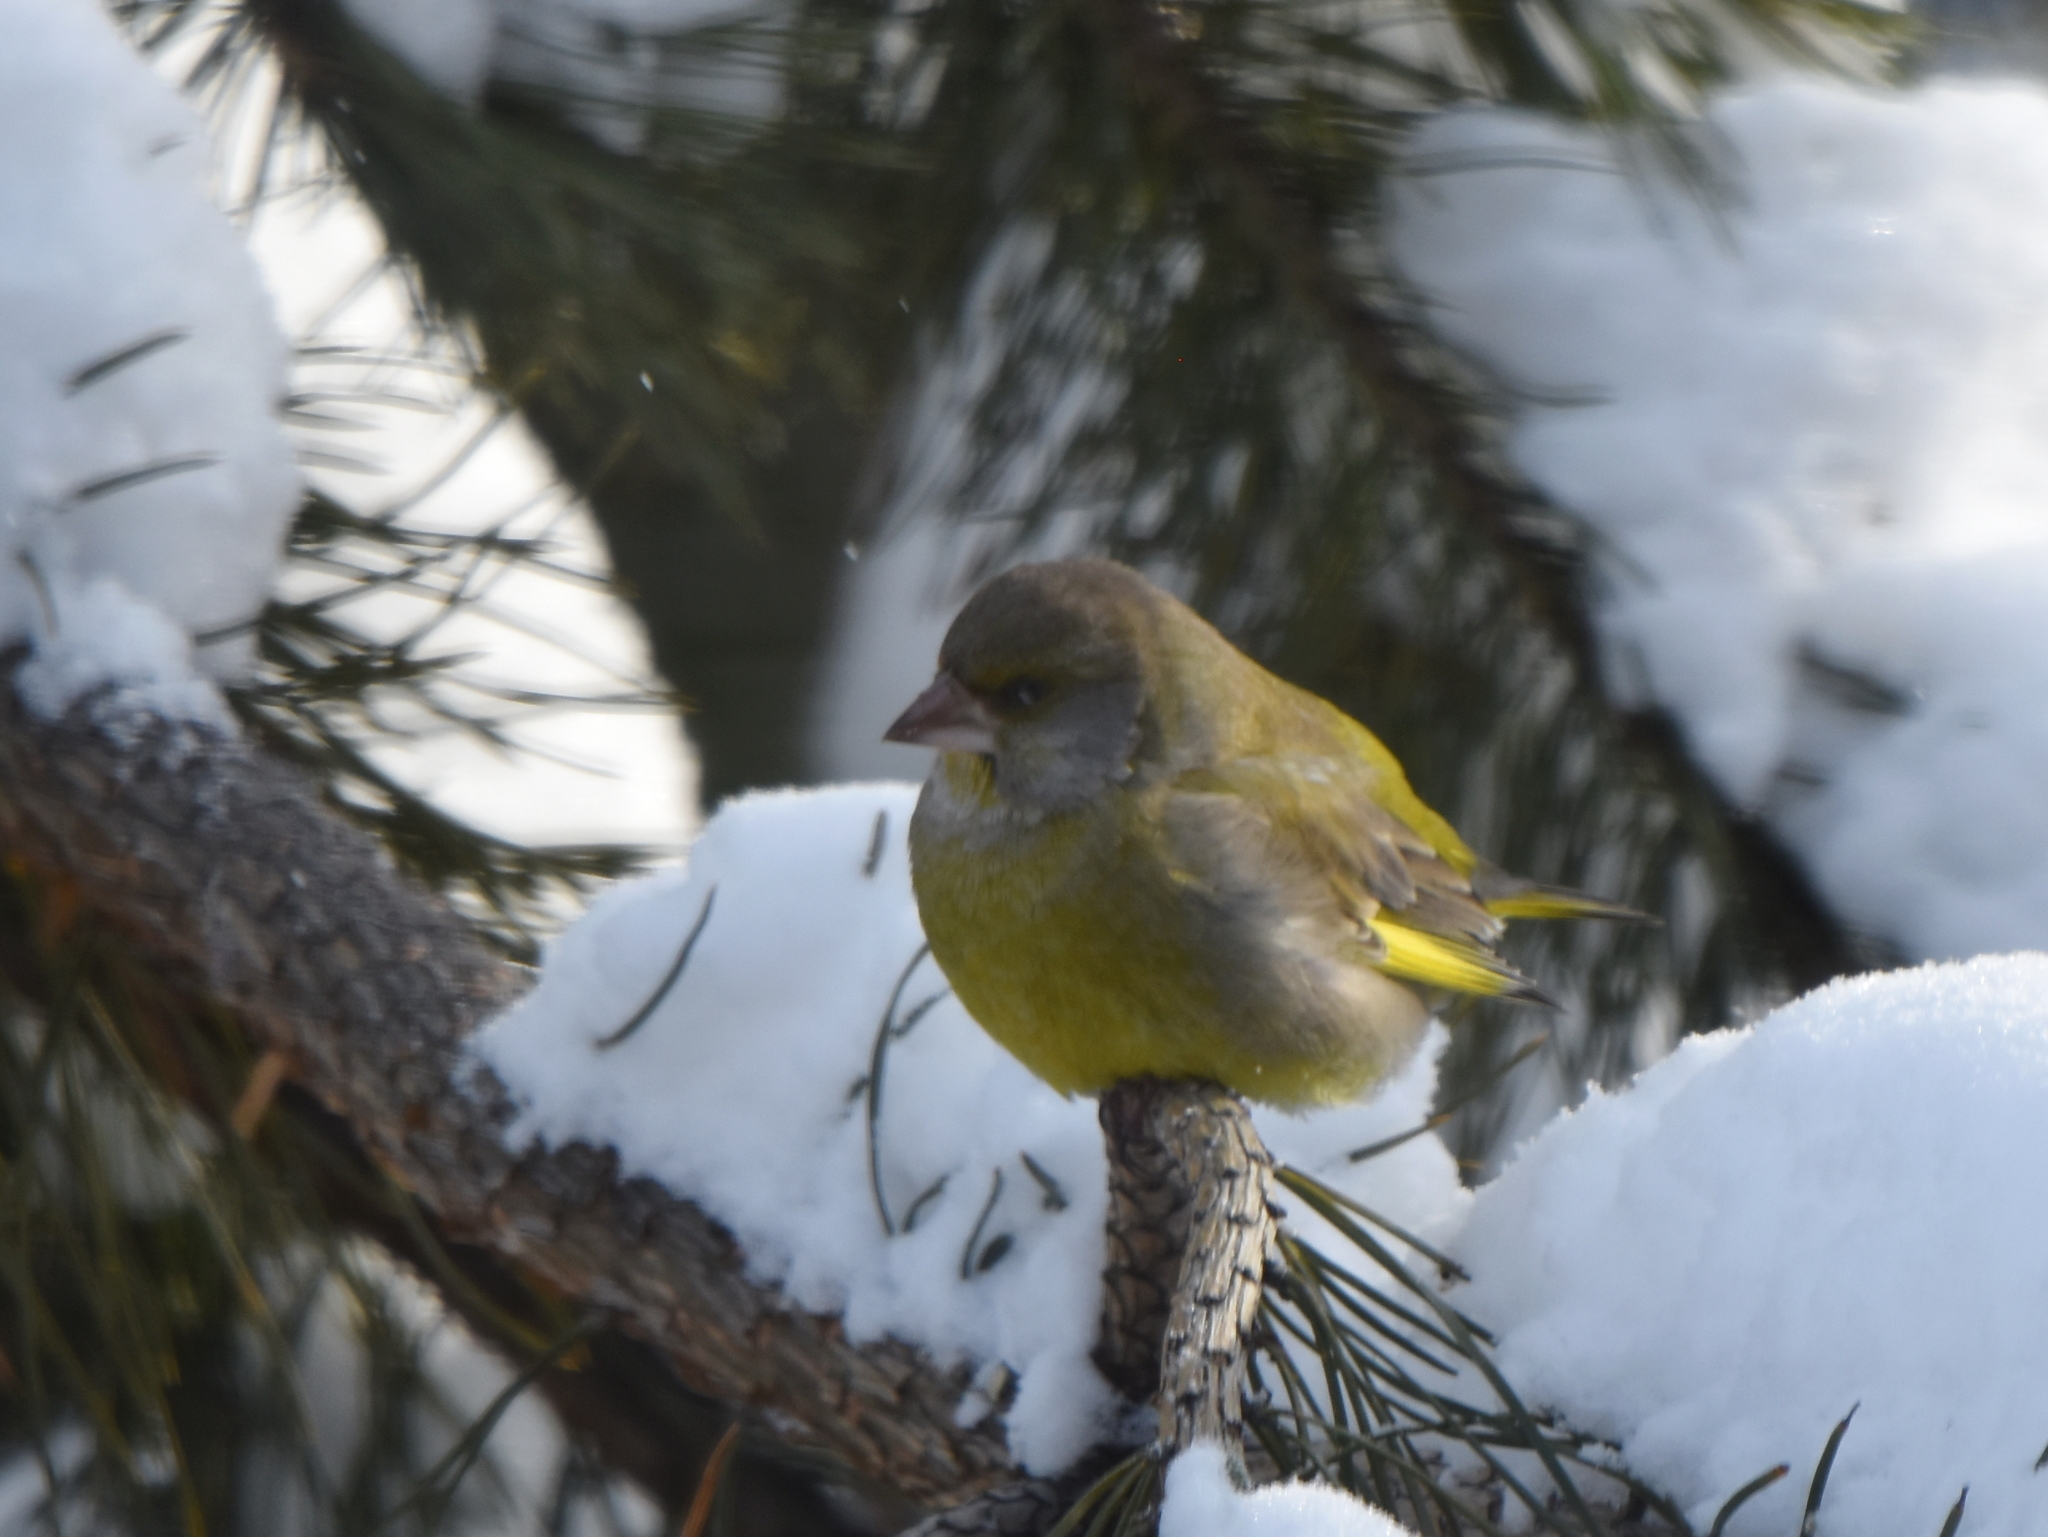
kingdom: Plantae
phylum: Tracheophyta
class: Liliopsida
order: Poales
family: Poaceae
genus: Chloris
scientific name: Chloris chloris
